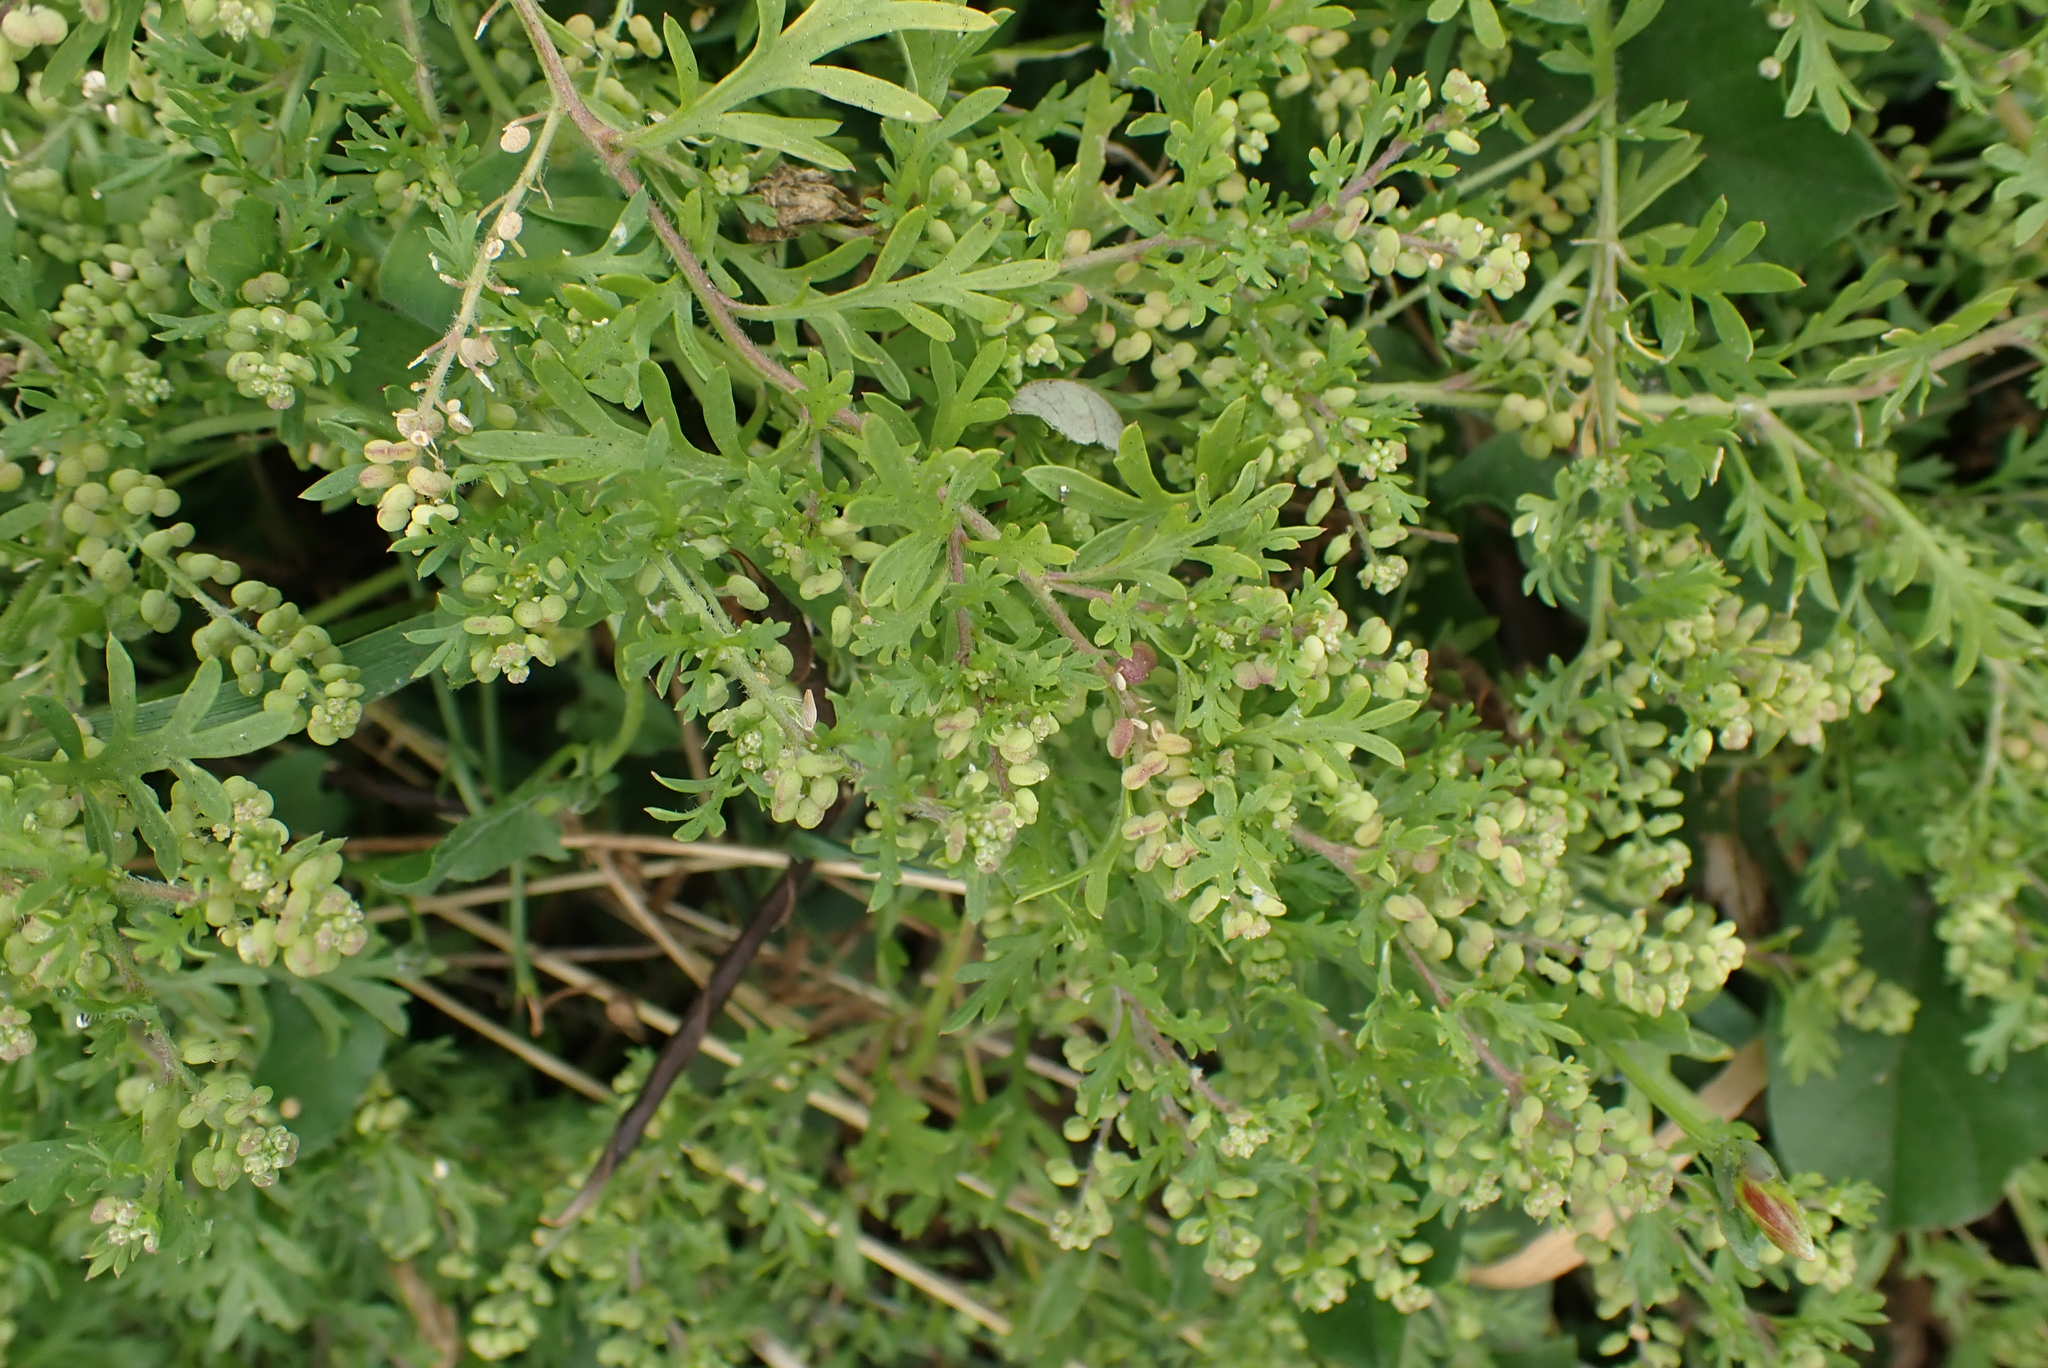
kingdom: Plantae
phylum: Tracheophyta
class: Magnoliopsida
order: Brassicales
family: Brassicaceae
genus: Lepidium
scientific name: Lepidium didymum
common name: Lesser swinecress
